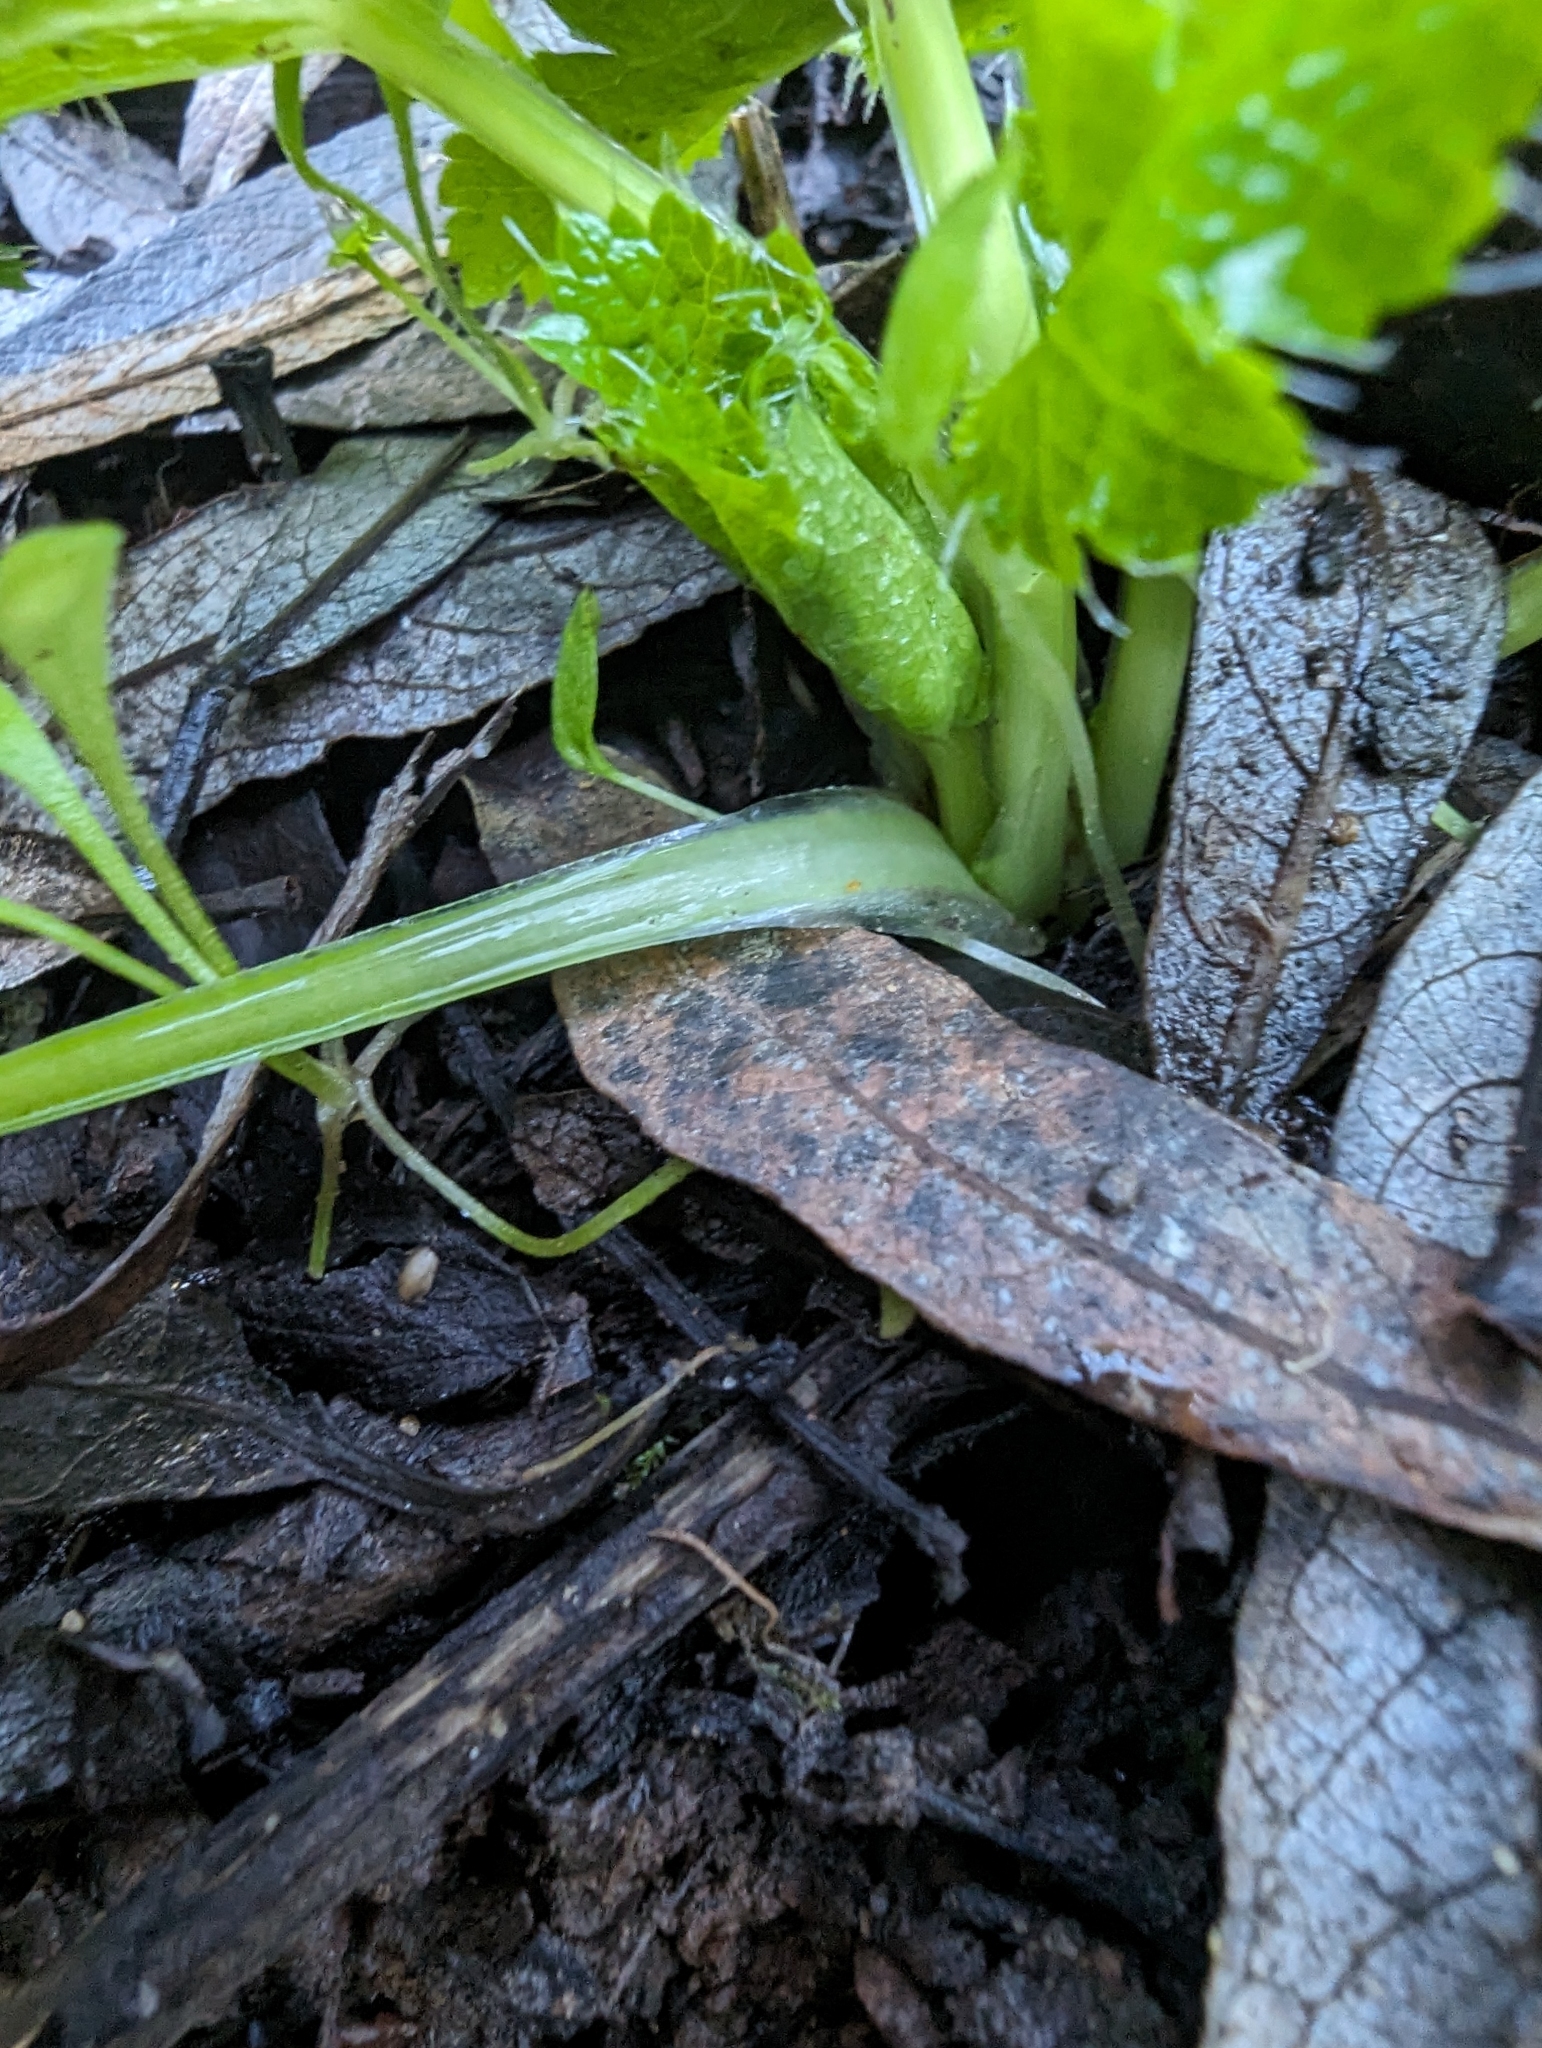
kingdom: Plantae
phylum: Tracheophyta
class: Magnoliopsida
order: Apiales
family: Apiaceae
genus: Sanicula
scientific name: Sanicula crassicaulis
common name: Western snakeroot
